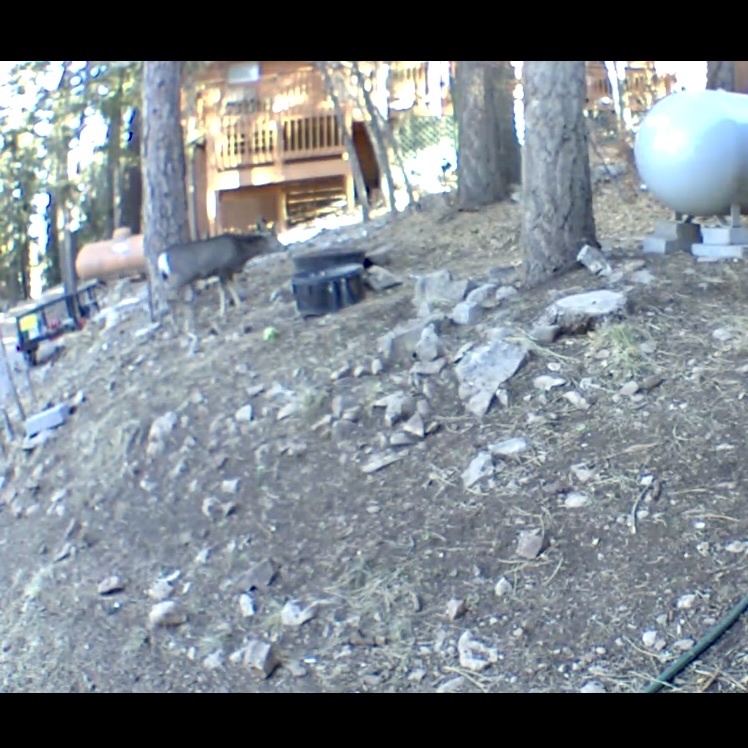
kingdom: Animalia
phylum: Chordata
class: Mammalia
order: Artiodactyla
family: Cervidae
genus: Odocoileus
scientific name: Odocoileus hemionus
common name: Mule deer
